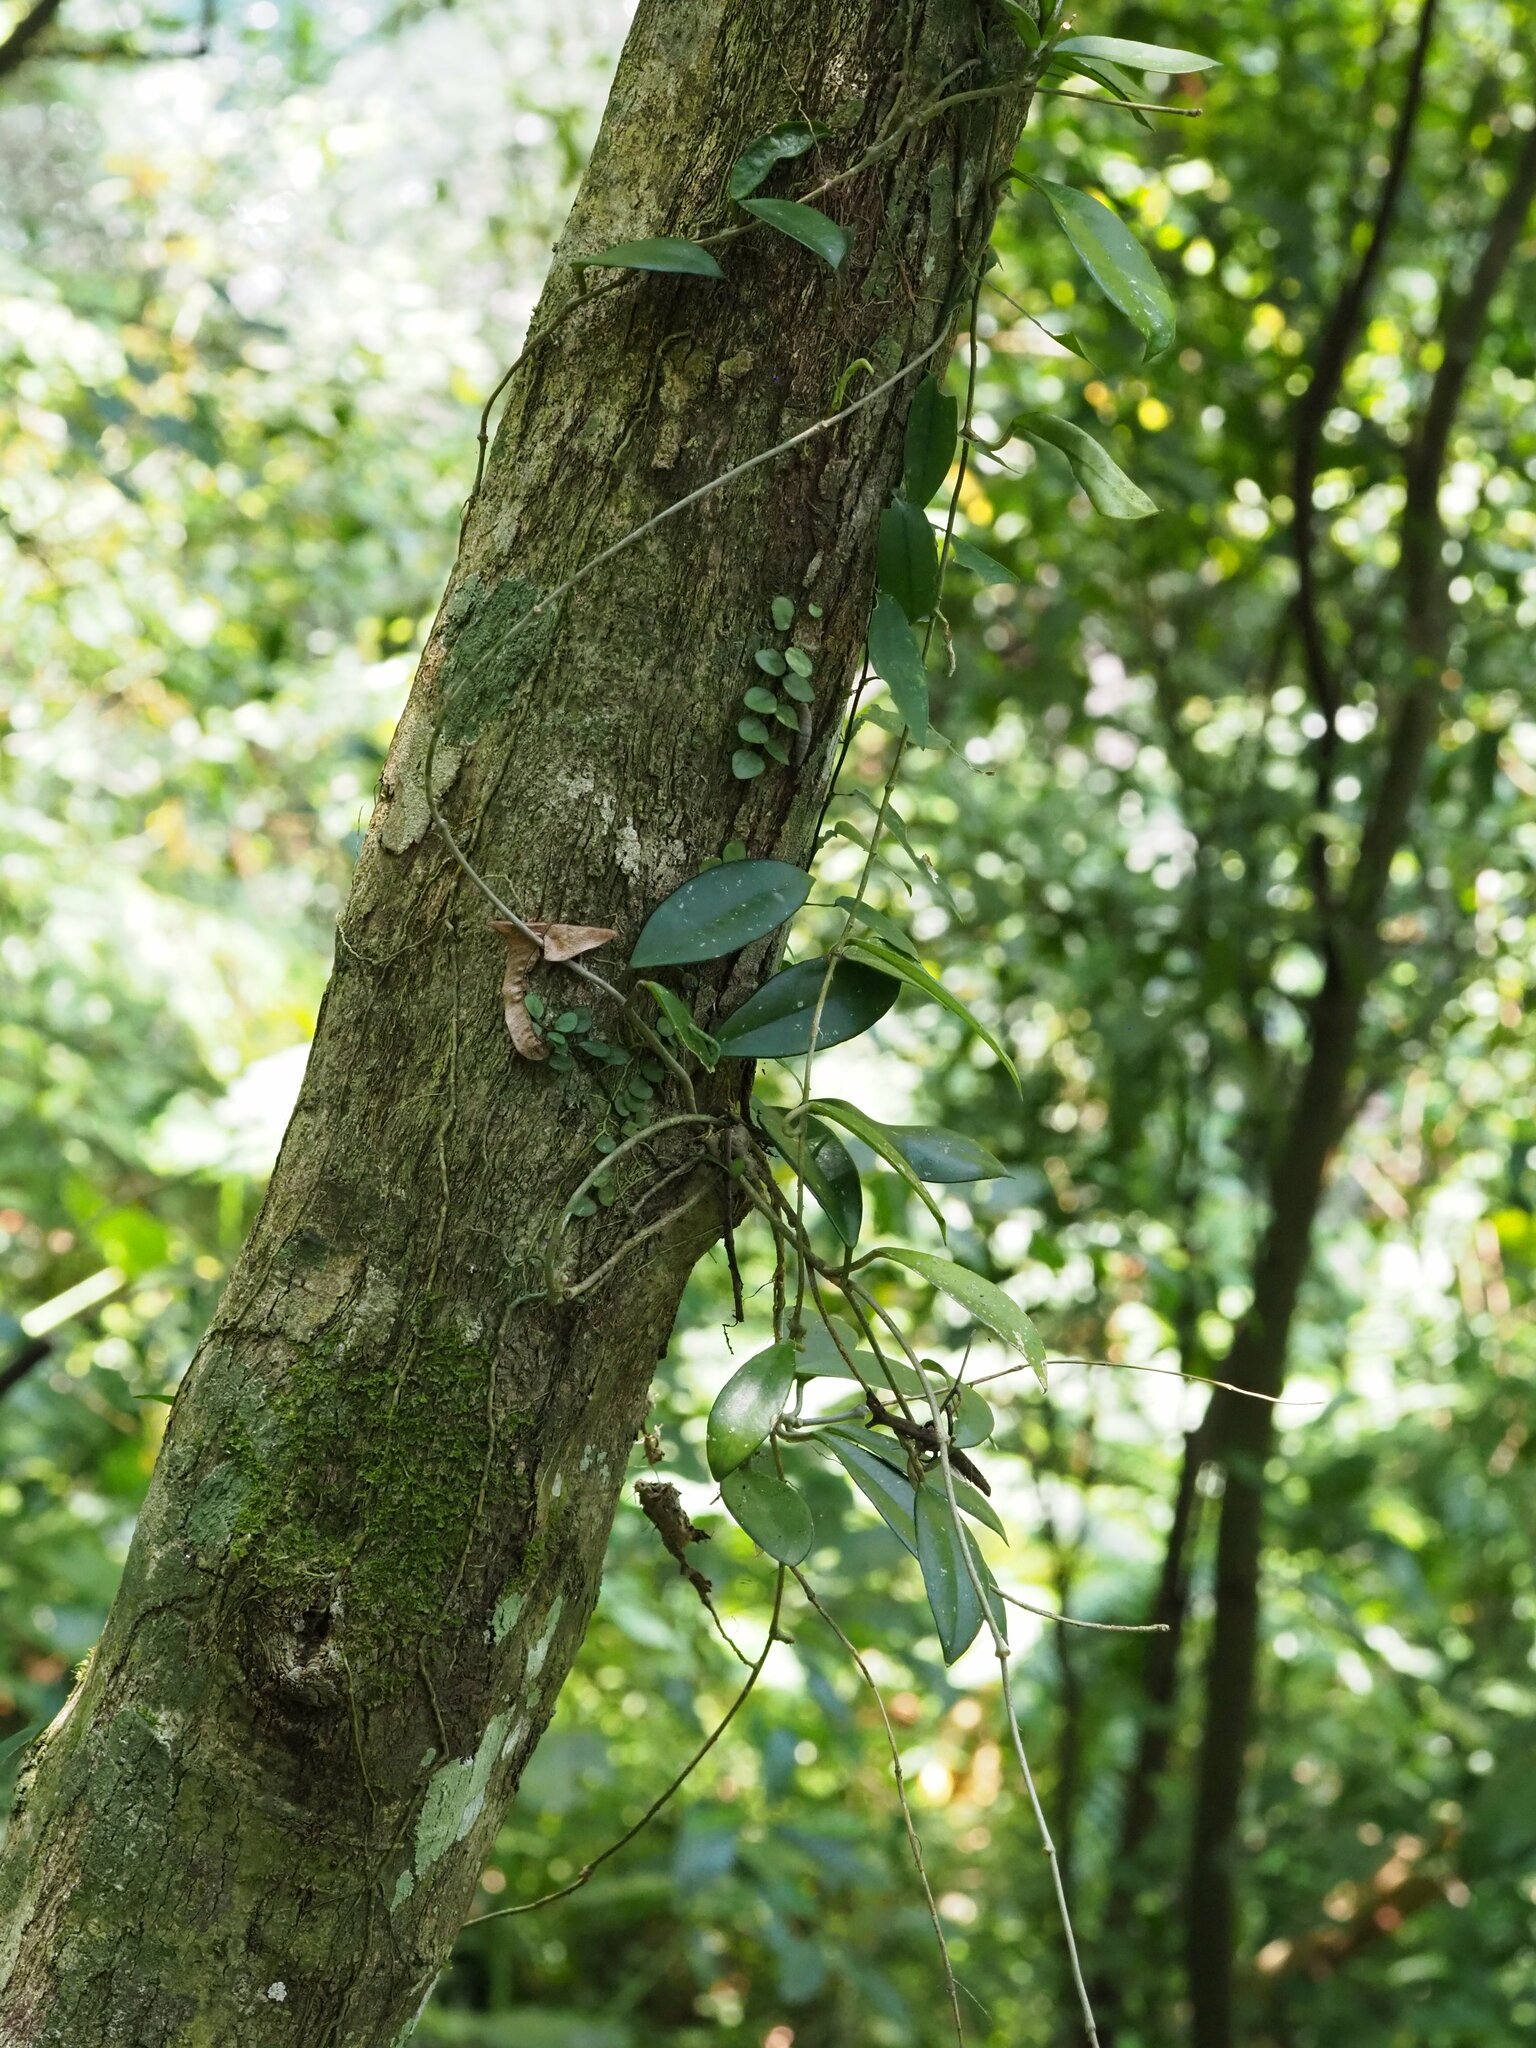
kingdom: Plantae
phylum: Tracheophyta
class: Magnoliopsida
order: Gentianales
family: Apocynaceae
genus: Hoya
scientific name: Hoya carnosa
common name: Honeyplant
